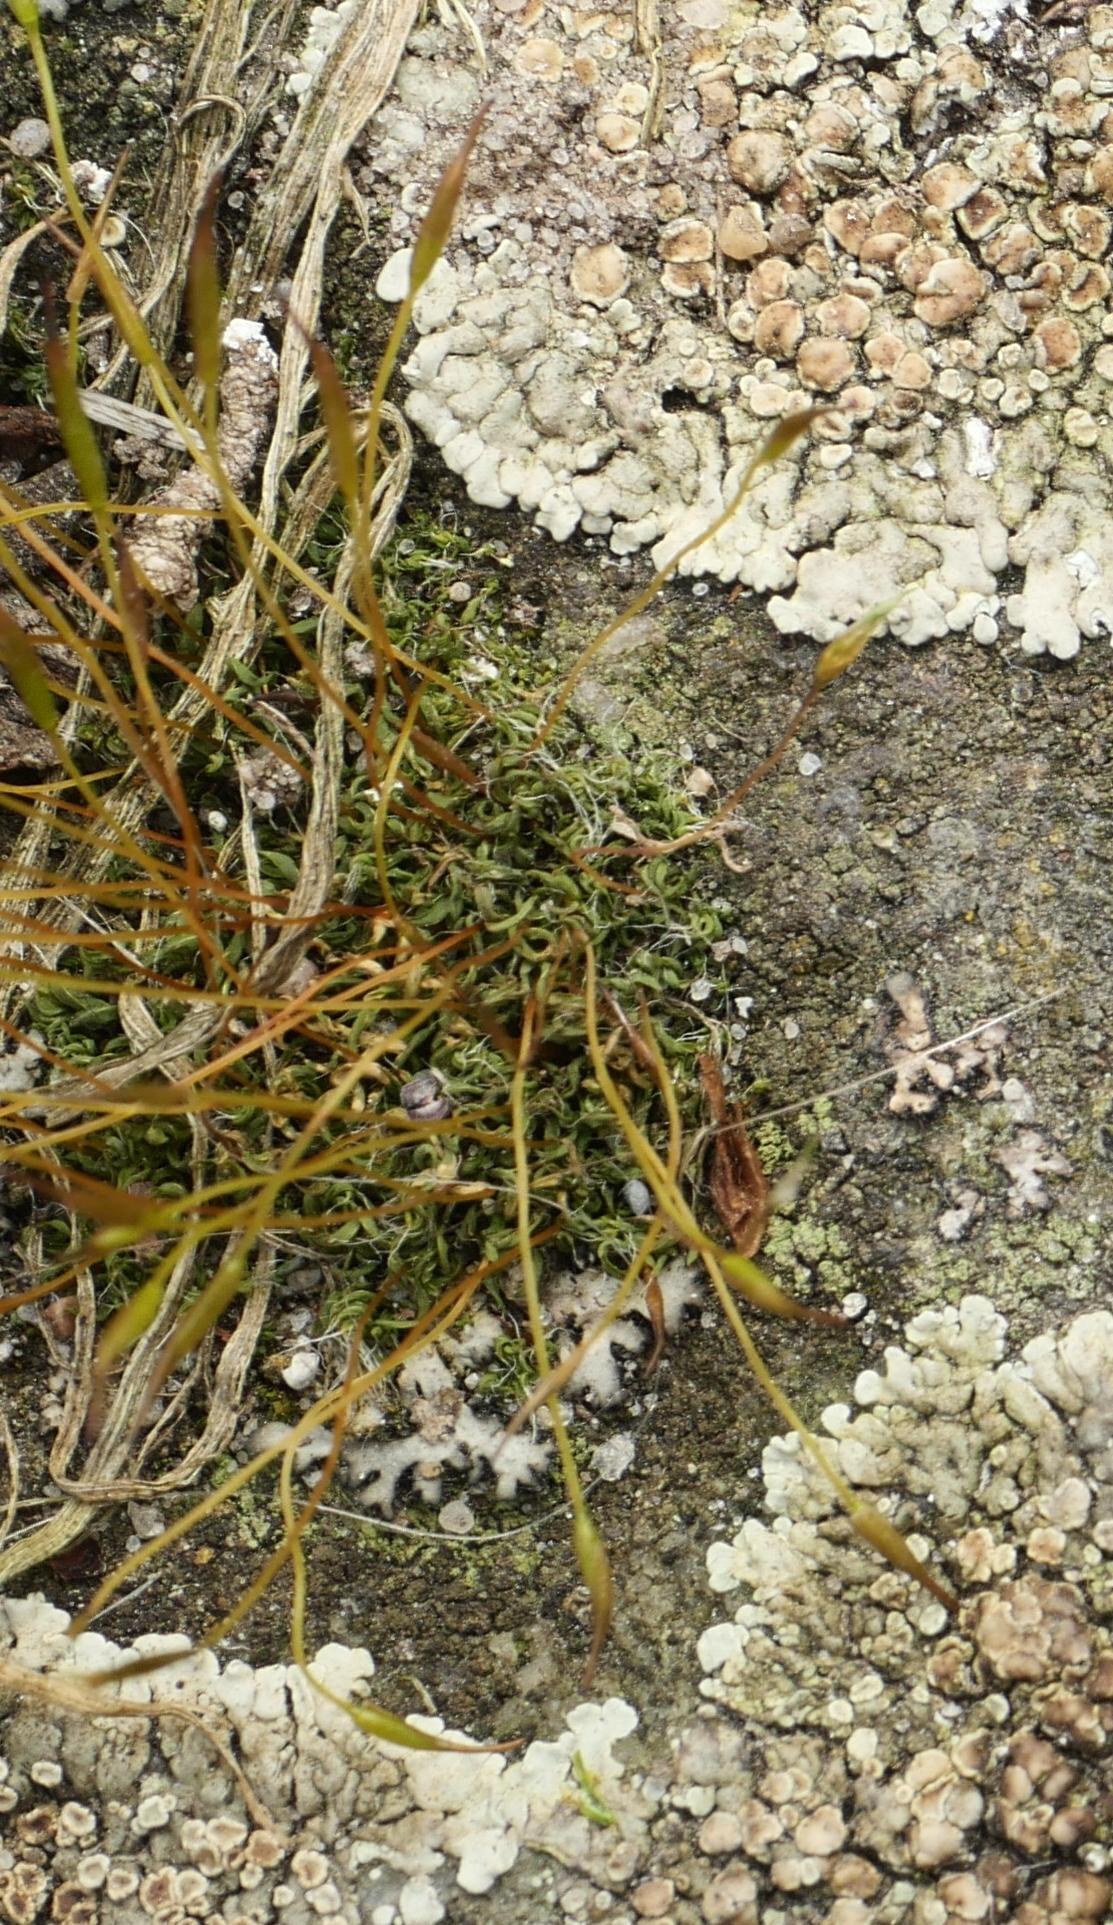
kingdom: Plantae
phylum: Bryophyta
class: Bryopsida
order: Pottiales
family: Pottiaceae
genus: Tortula
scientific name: Tortula muralis
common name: Wall screw-moss
